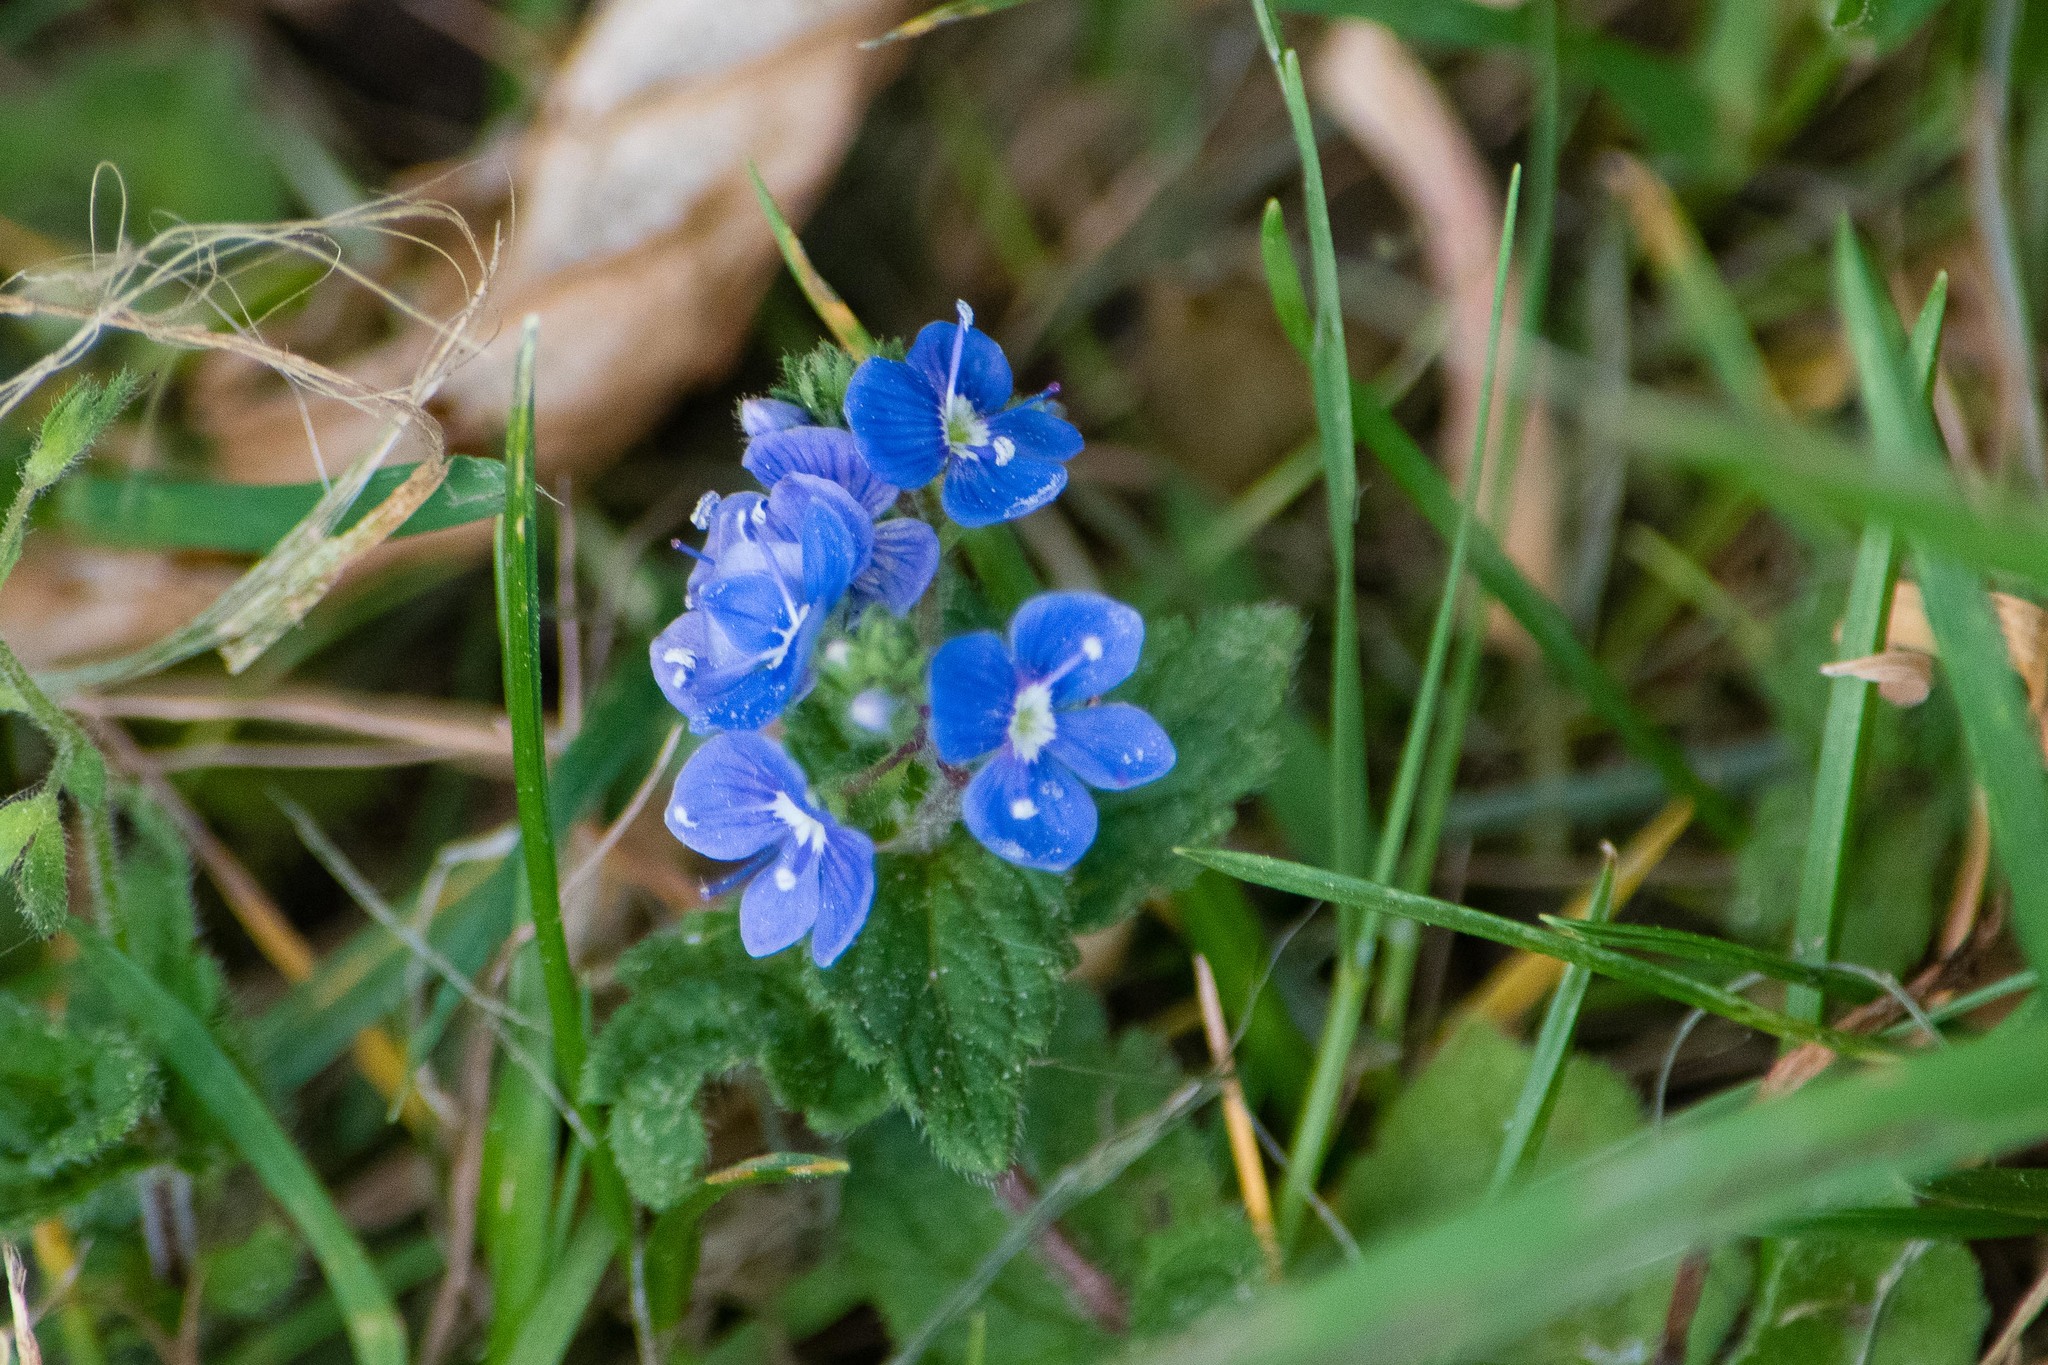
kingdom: Plantae
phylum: Tracheophyta
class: Magnoliopsida
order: Lamiales
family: Plantaginaceae
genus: Veronica
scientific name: Veronica chamaedrys
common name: Germander speedwell
